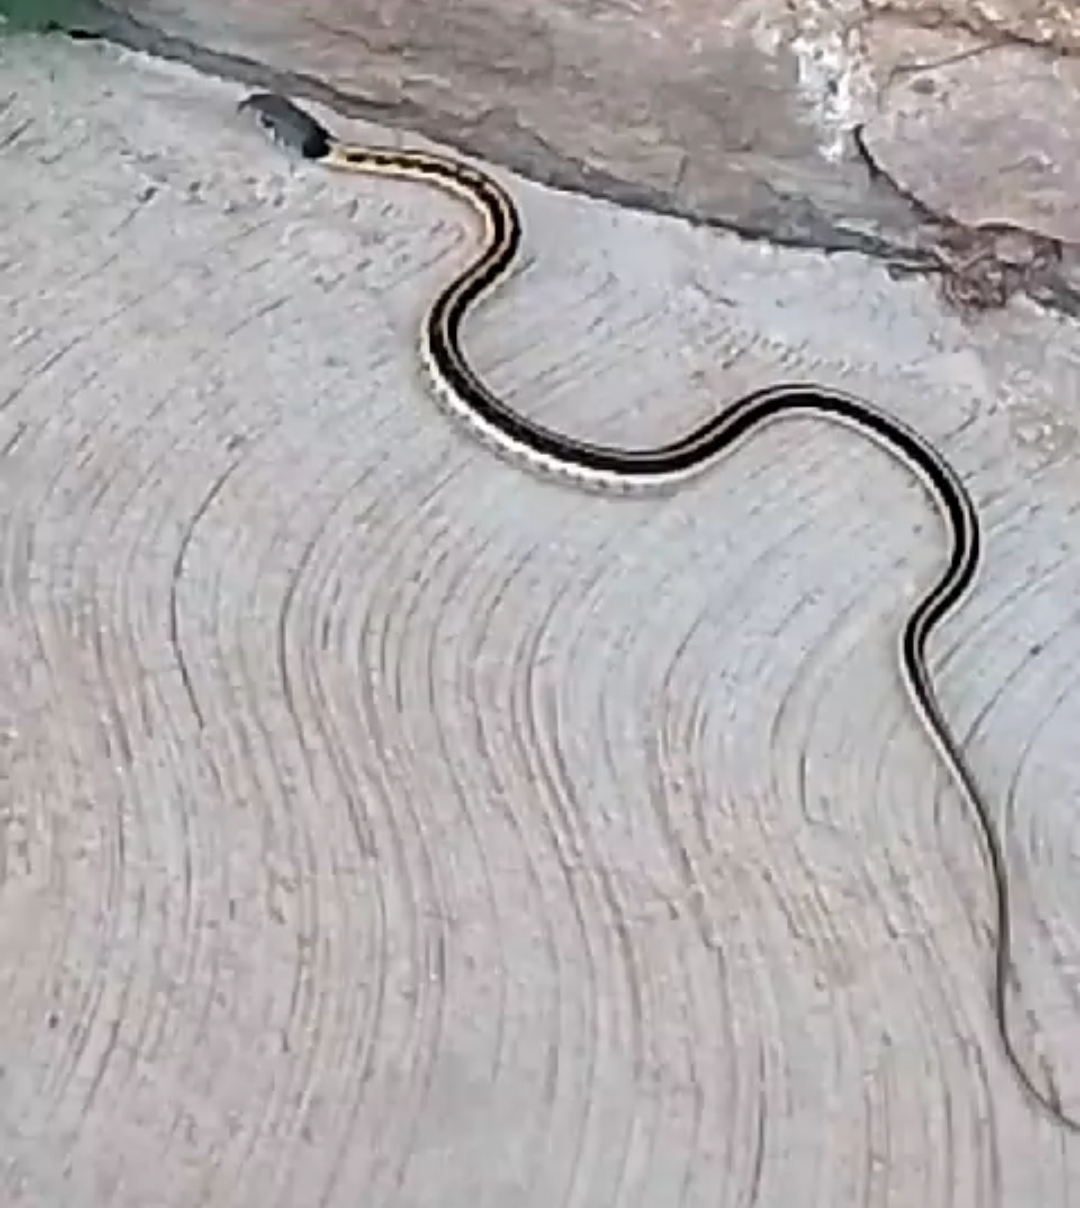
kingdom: Animalia
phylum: Chordata
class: Squamata
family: Colubridae
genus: Thamnophis
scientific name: Thamnophis cyrtopsis
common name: Black-necked gartersnake
